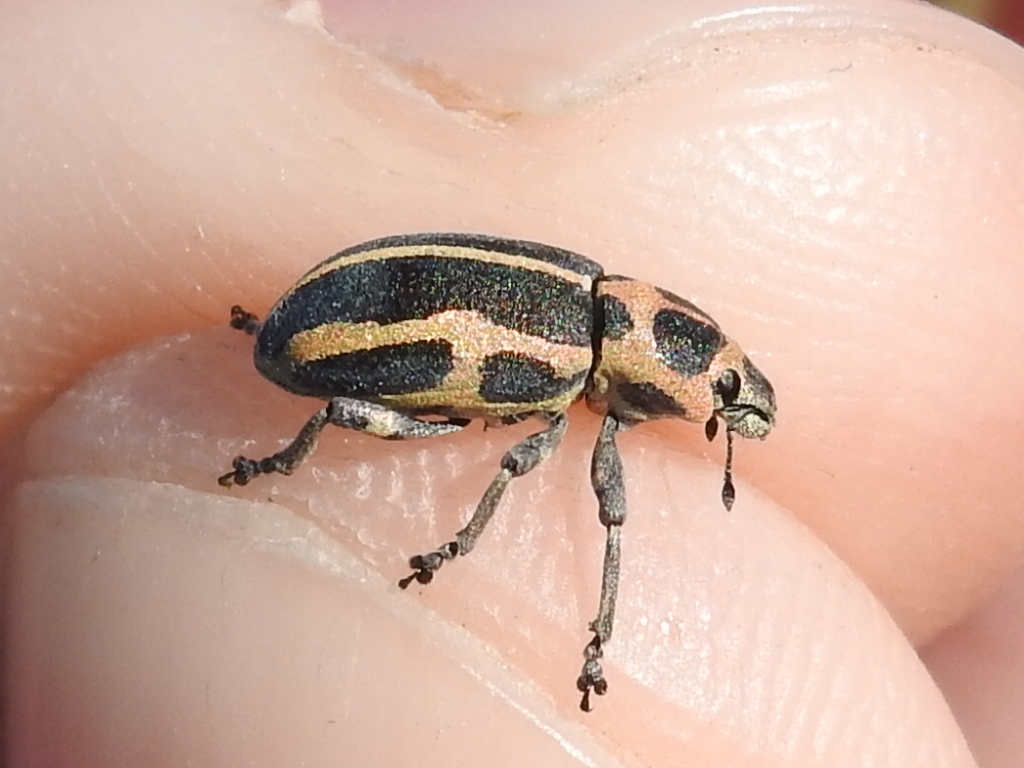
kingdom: Animalia
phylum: Arthropoda
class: Insecta
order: Coleoptera
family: Curculionidae
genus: Eudiagogus
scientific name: Eudiagogus pulcher
